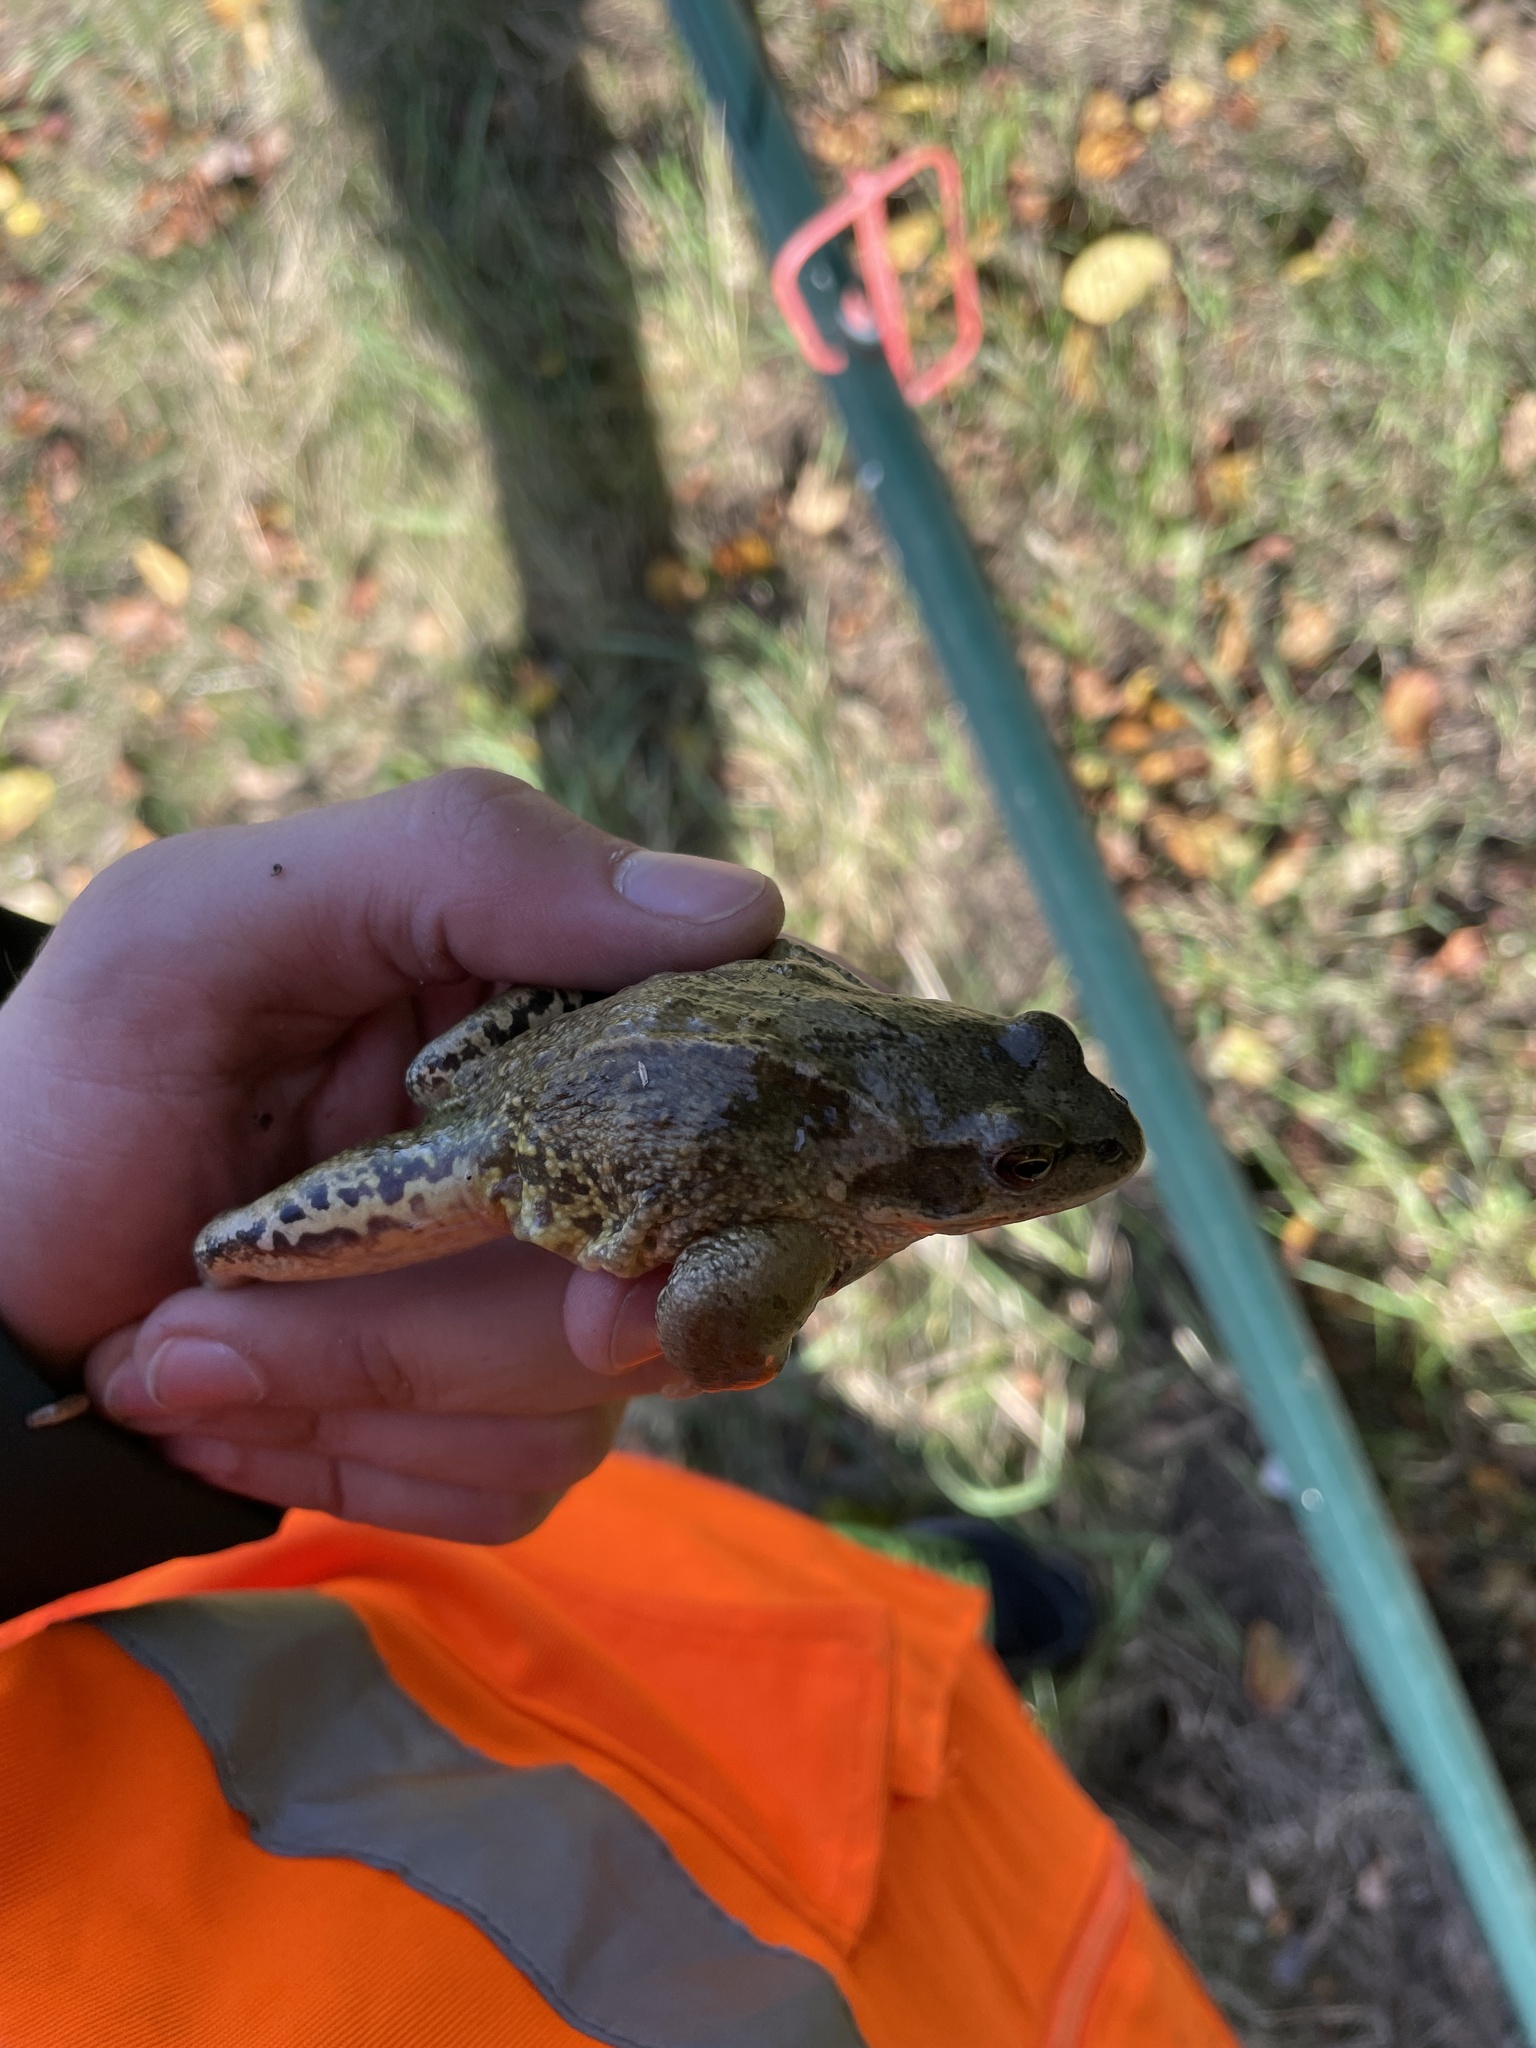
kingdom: Animalia
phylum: Chordata
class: Amphibia
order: Anura
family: Ranidae
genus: Rana
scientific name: Rana temporaria
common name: Common frog
